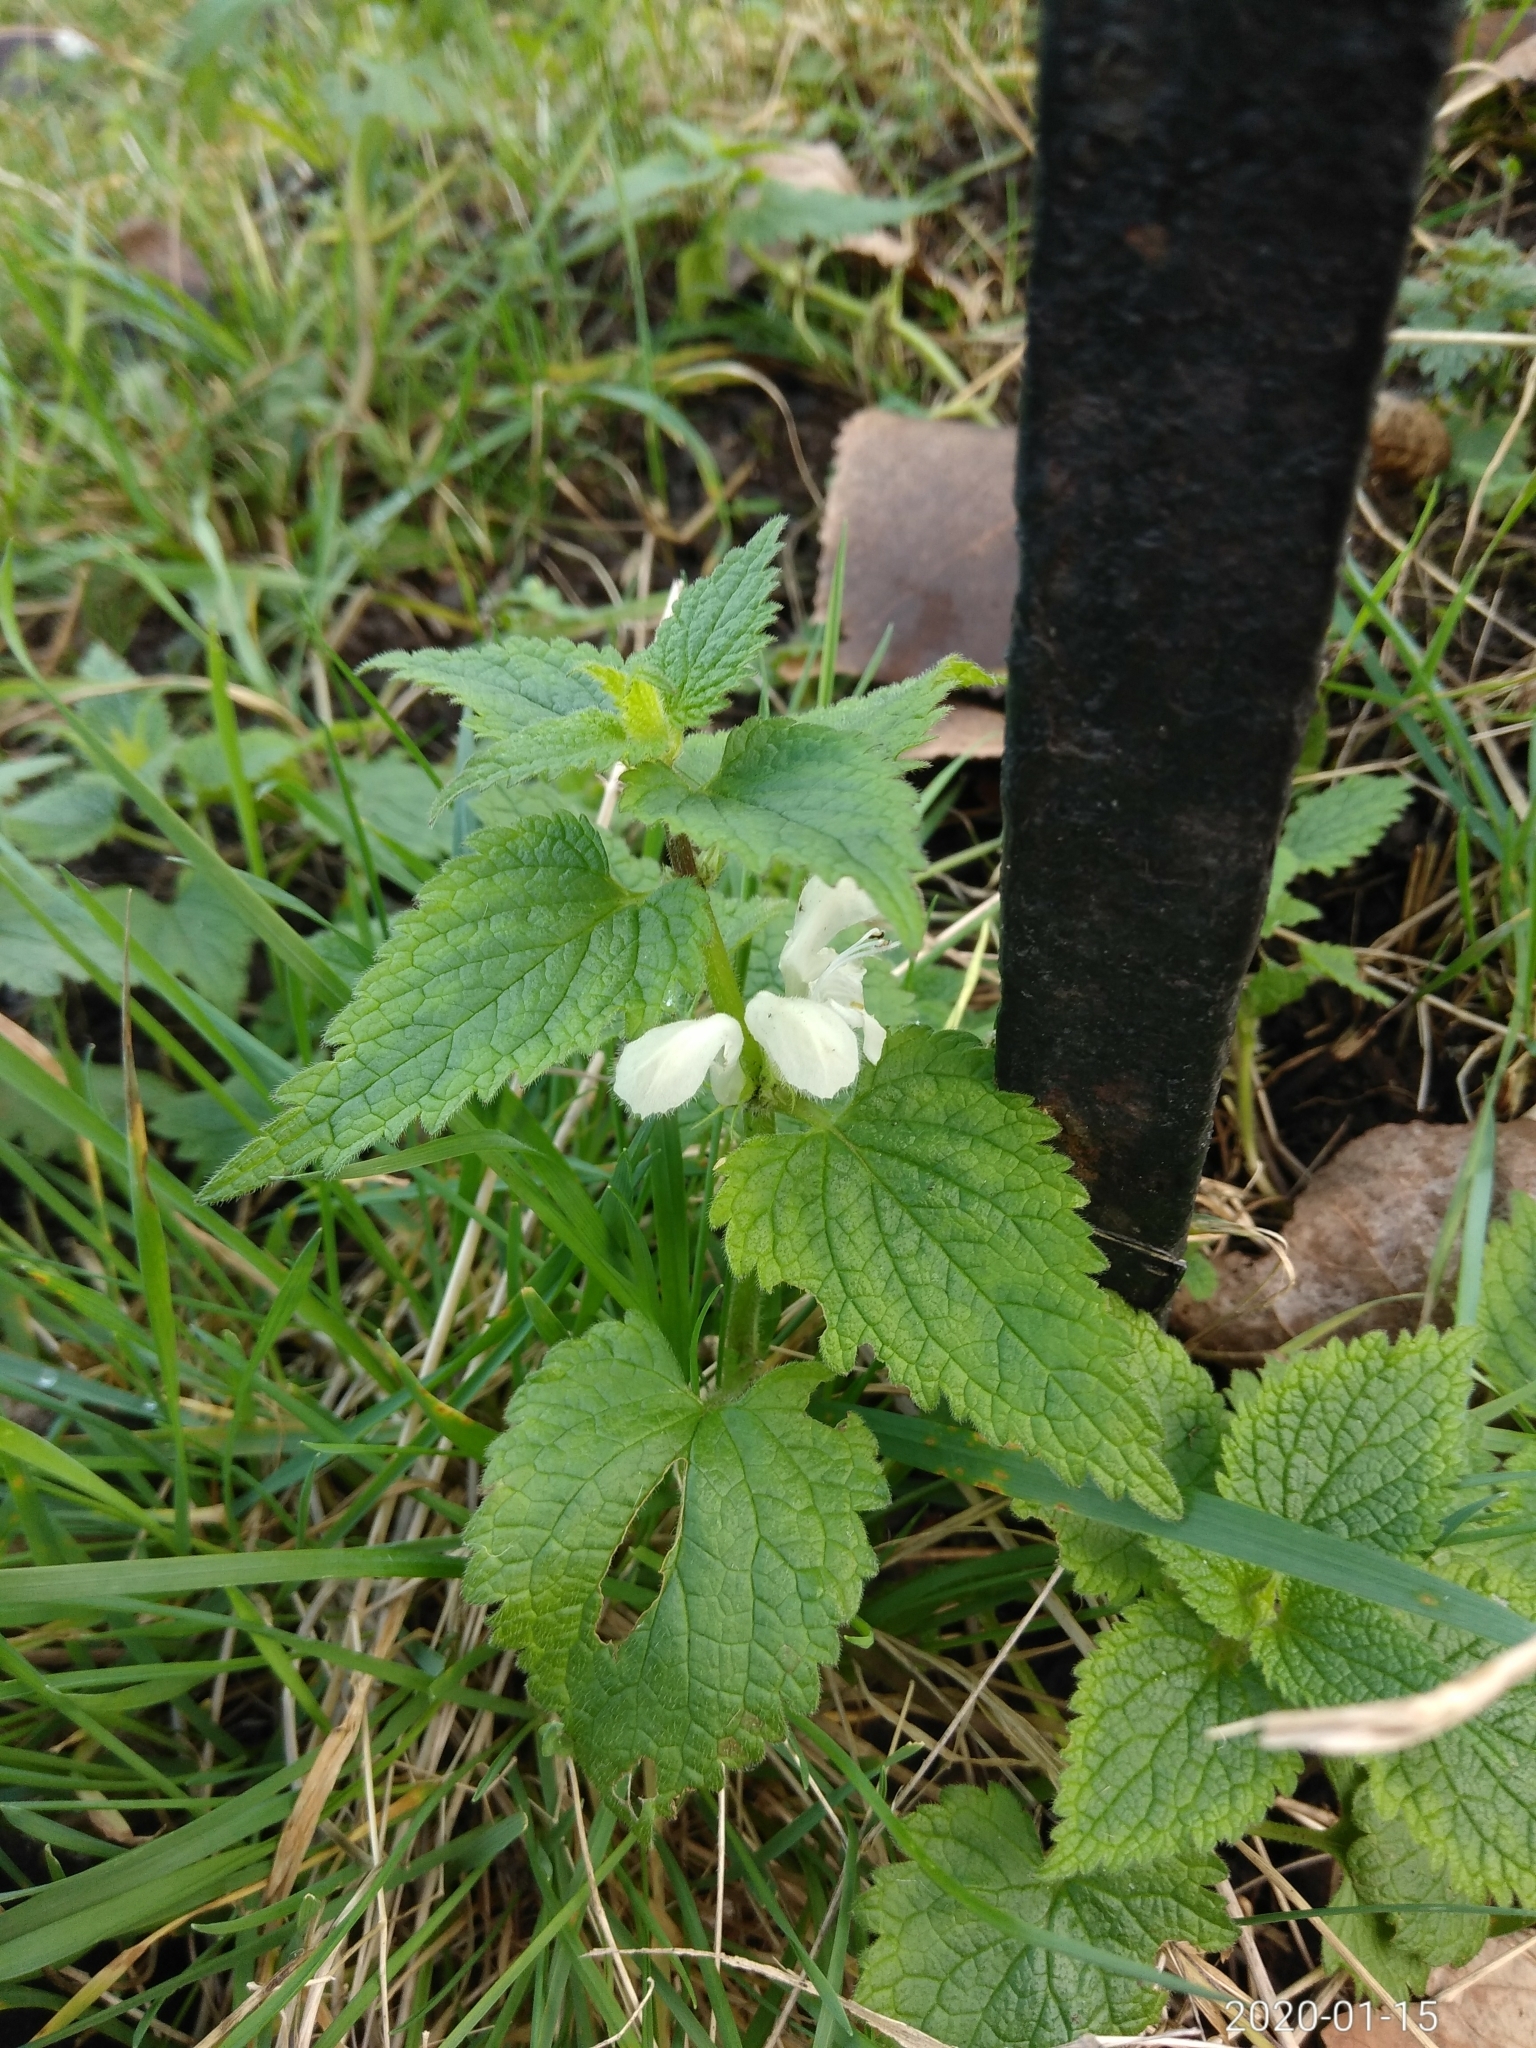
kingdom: Plantae
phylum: Tracheophyta
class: Magnoliopsida
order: Lamiales
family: Lamiaceae
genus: Lamium
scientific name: Lamium album
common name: White dead-nettle
